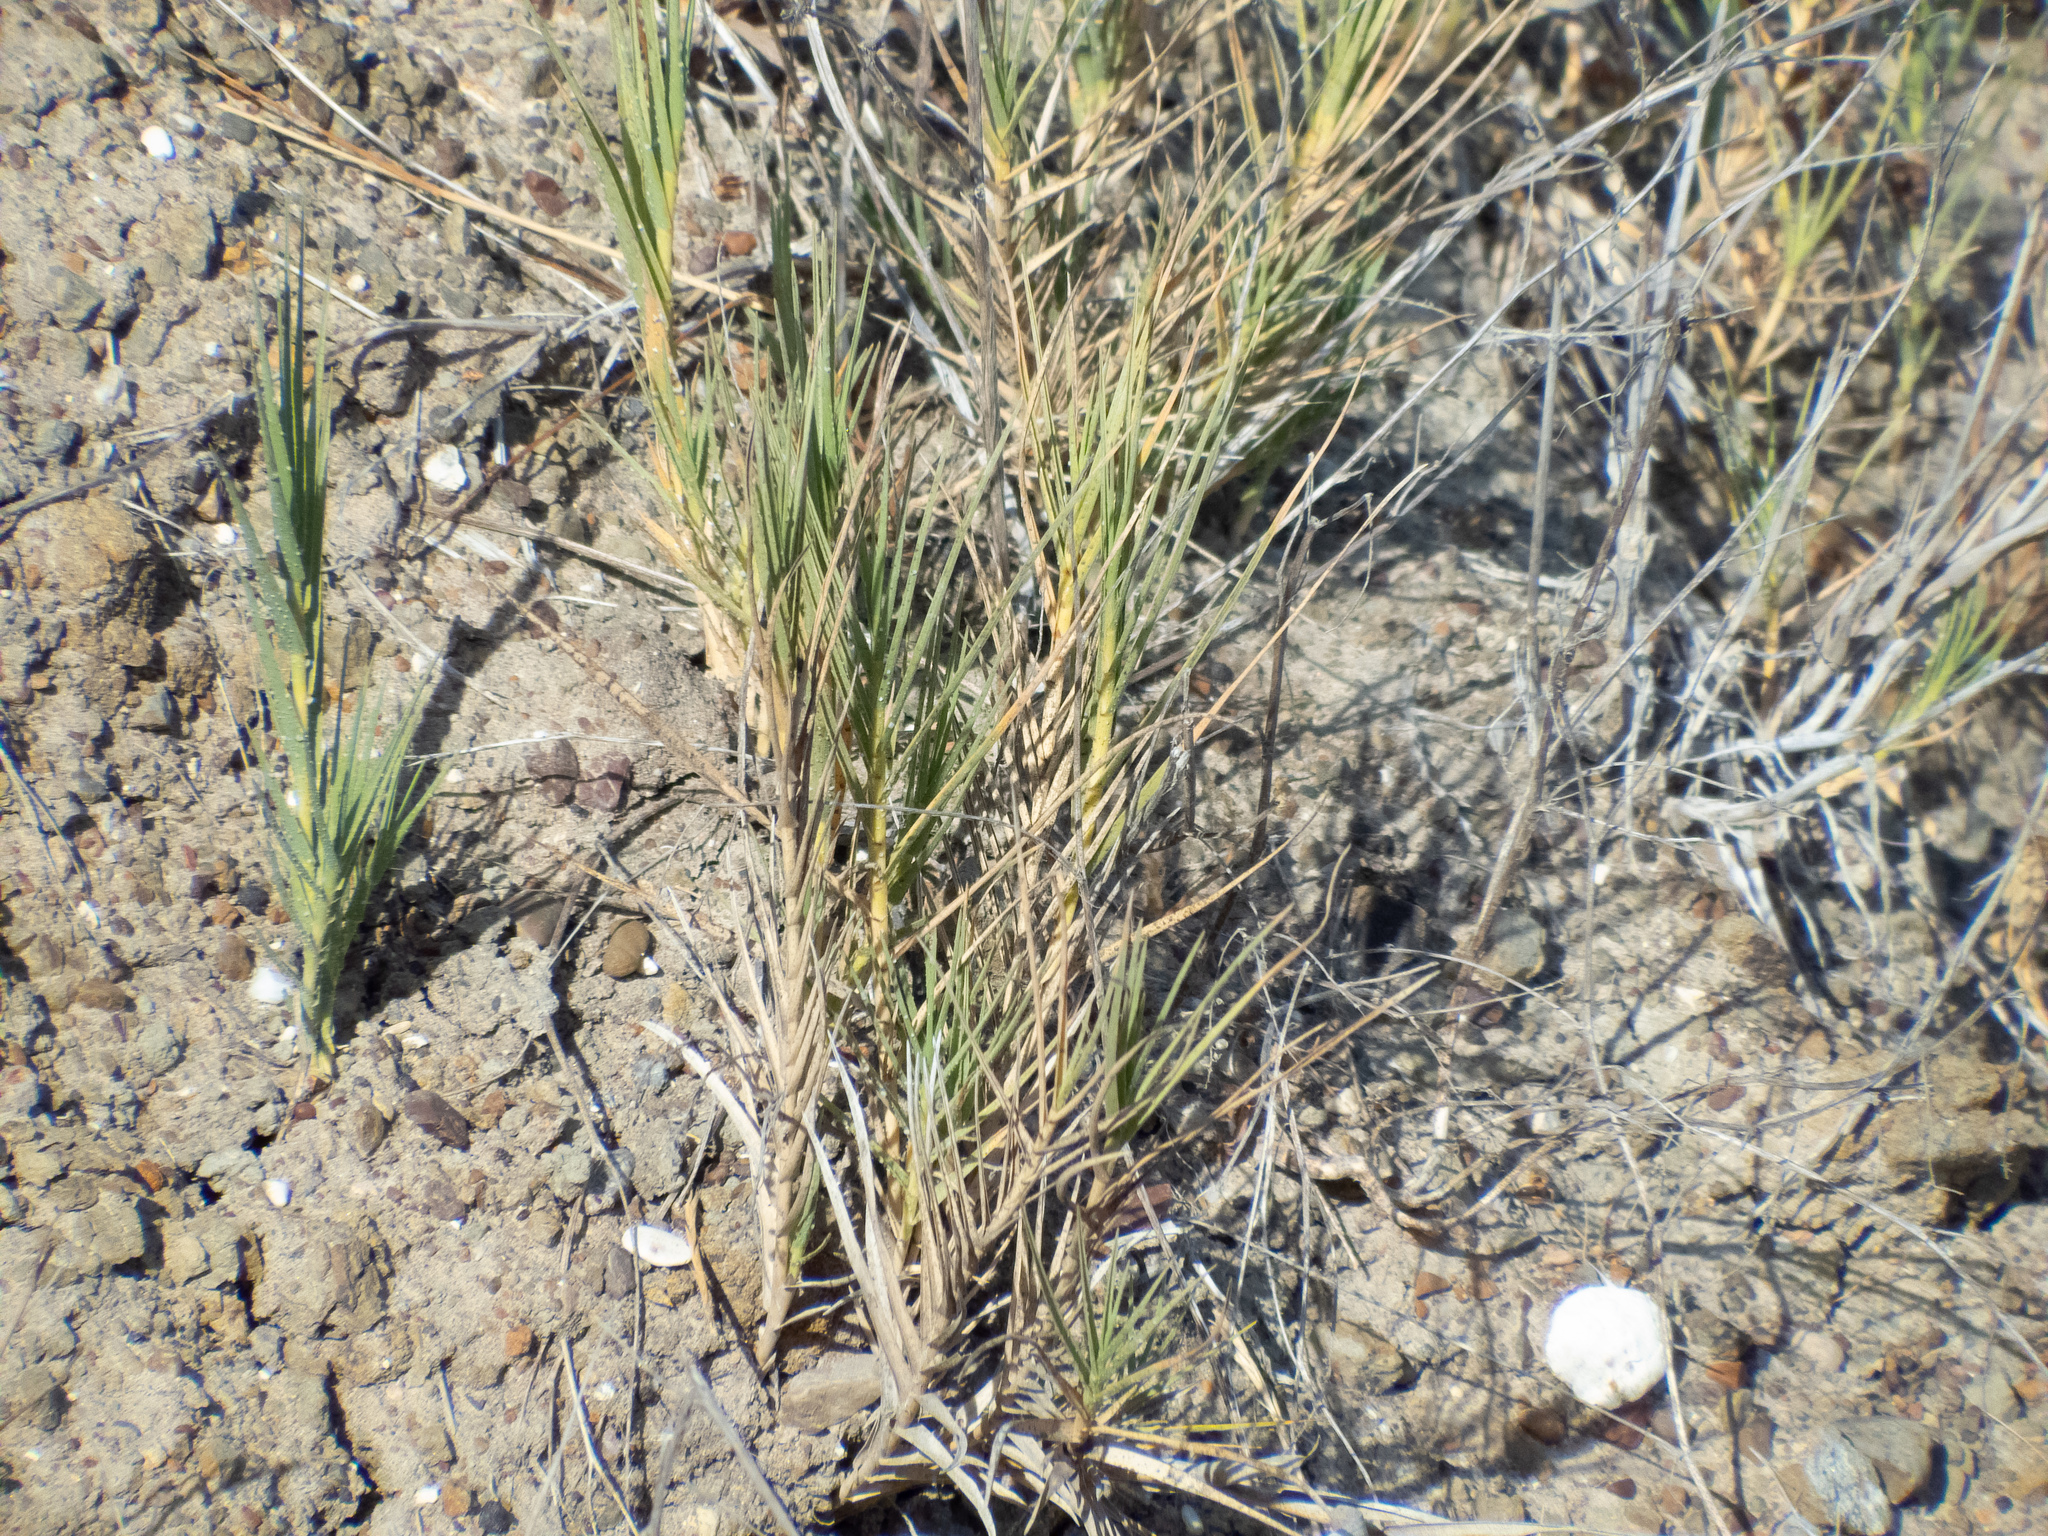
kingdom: Plantae
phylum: Tracheophyta
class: Liliopsida
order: Poales
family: Poaceae
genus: Distichlis
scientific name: Distichlis spicata
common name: Saltgrass
